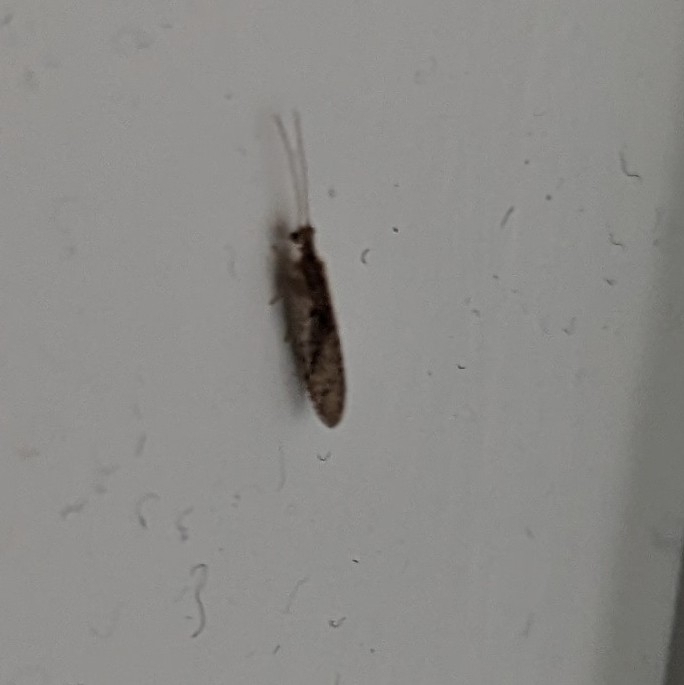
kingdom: Animalia
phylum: Arthropoda
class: Insecta
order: Neuroptera
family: Hemerobiidae
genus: Micromus
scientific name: Micromus tasmaniae
